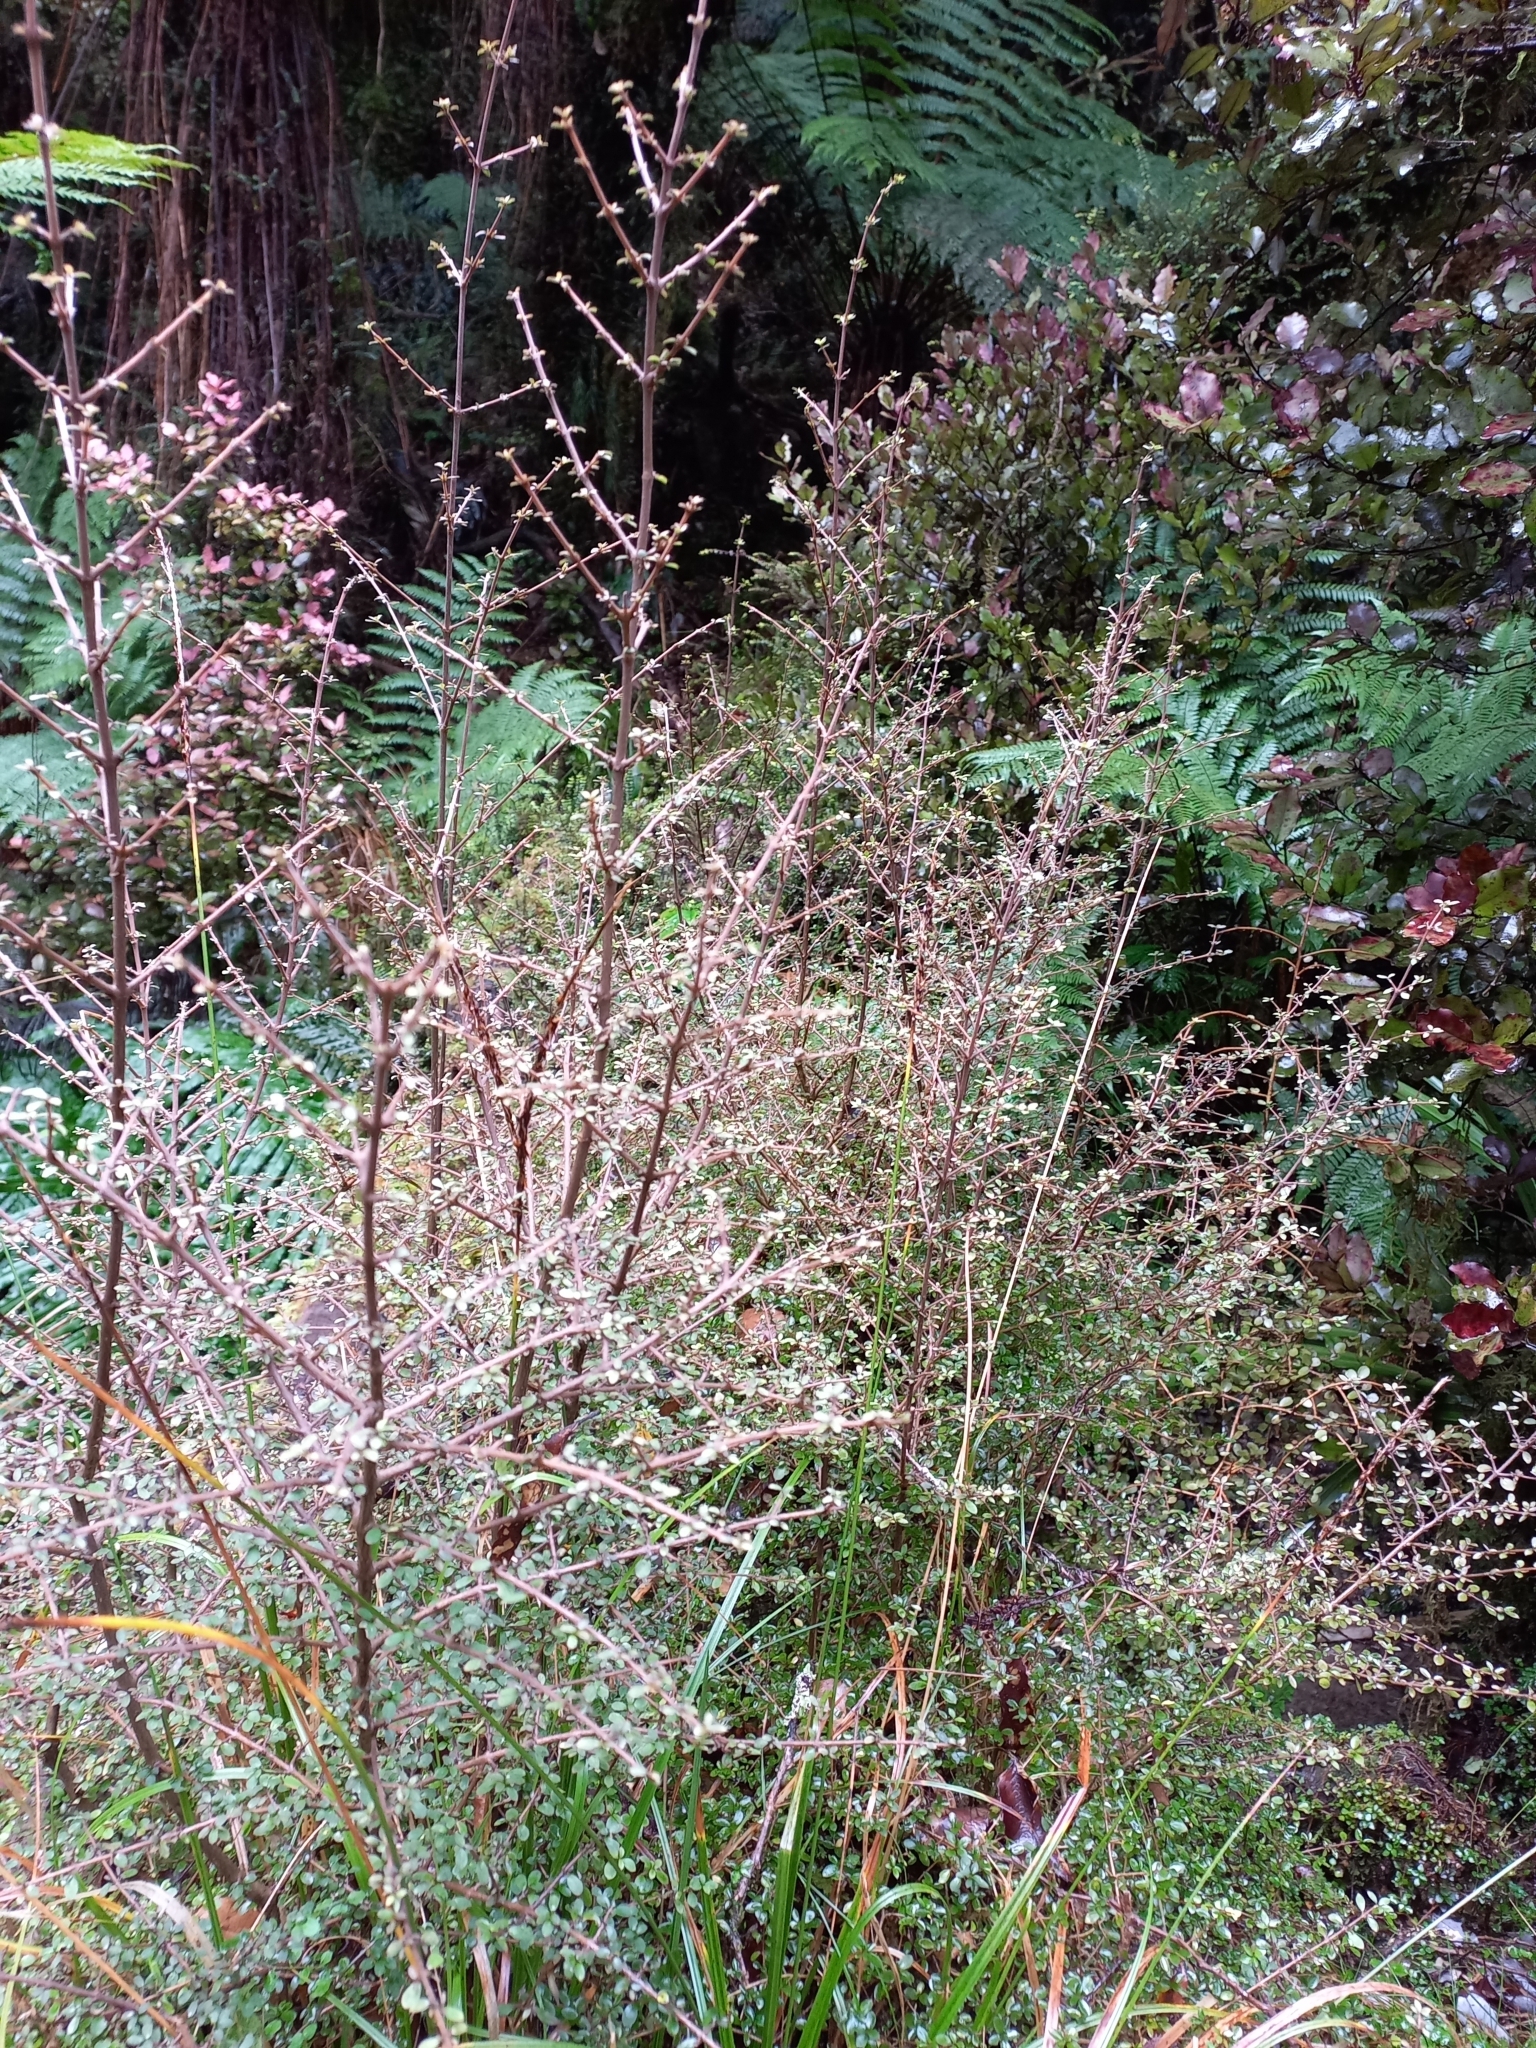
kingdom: Plantae
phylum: Tracheophyta
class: Magnoliopsida
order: Gentianales
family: Rubiaceae
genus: Coprosma
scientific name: Coprosma dumosa
